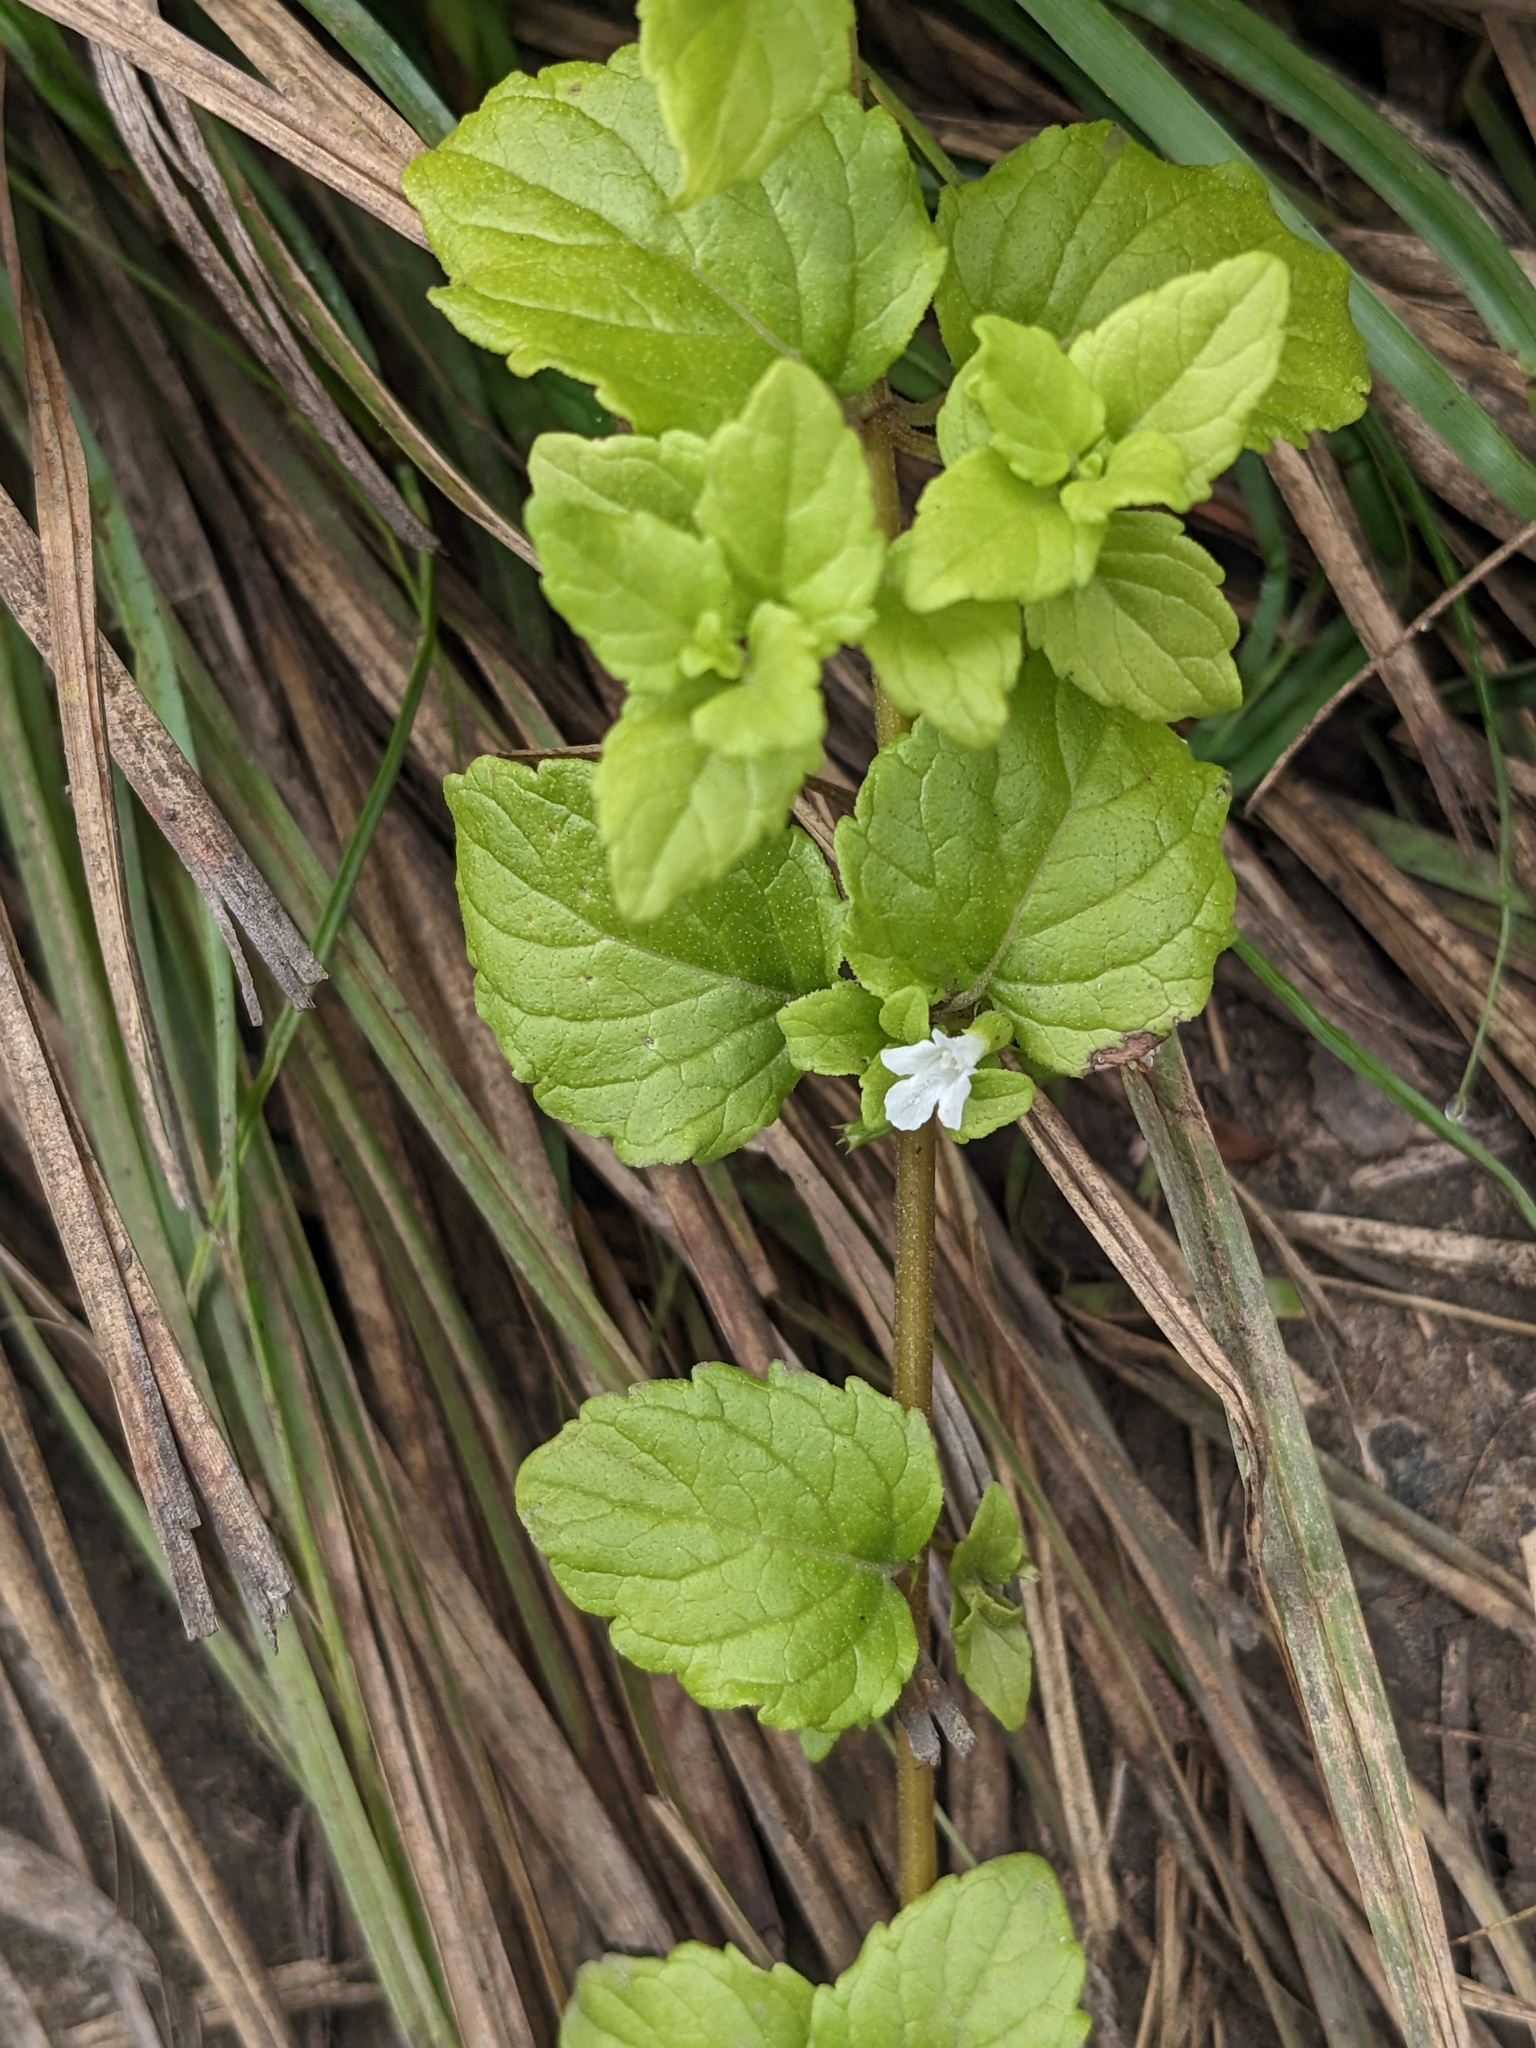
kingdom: Plantae
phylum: Tracheophyta
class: Magnoliopsida
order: Lamiales
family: Lamiaceae
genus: Micromeria
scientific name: Micromeria douglasii
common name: Yerba buena
